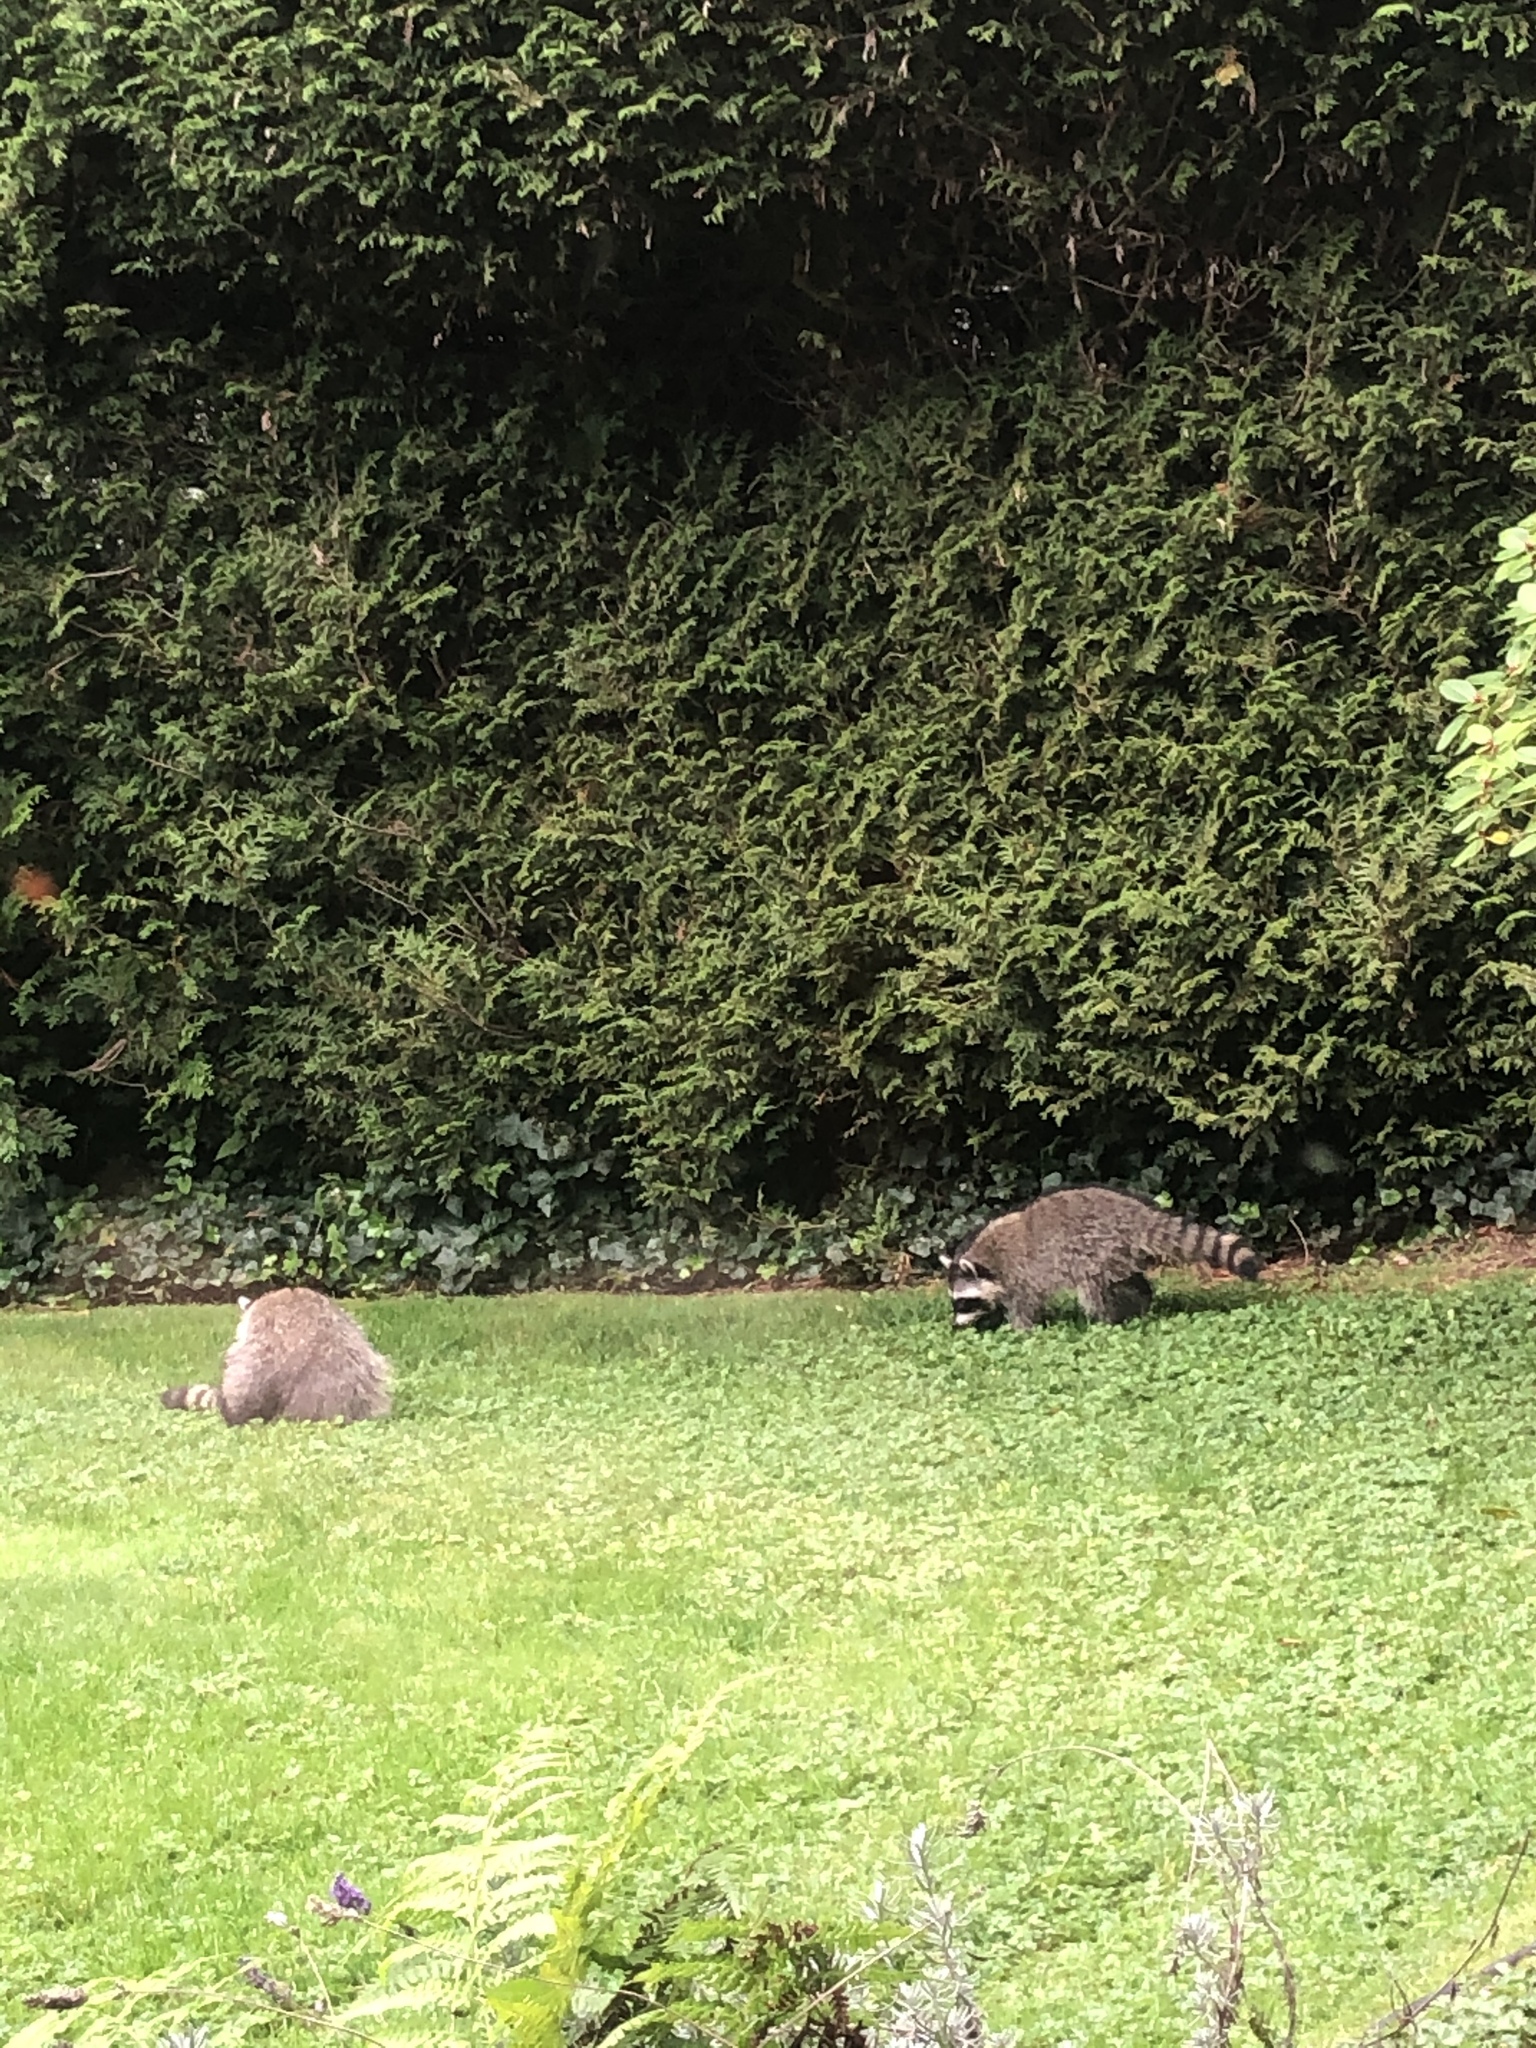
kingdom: Animalia
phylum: Chordata
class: Mammalia
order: Carnivora
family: Procyonidae
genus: Procyon
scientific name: Procyon lotor
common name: Raccoon
